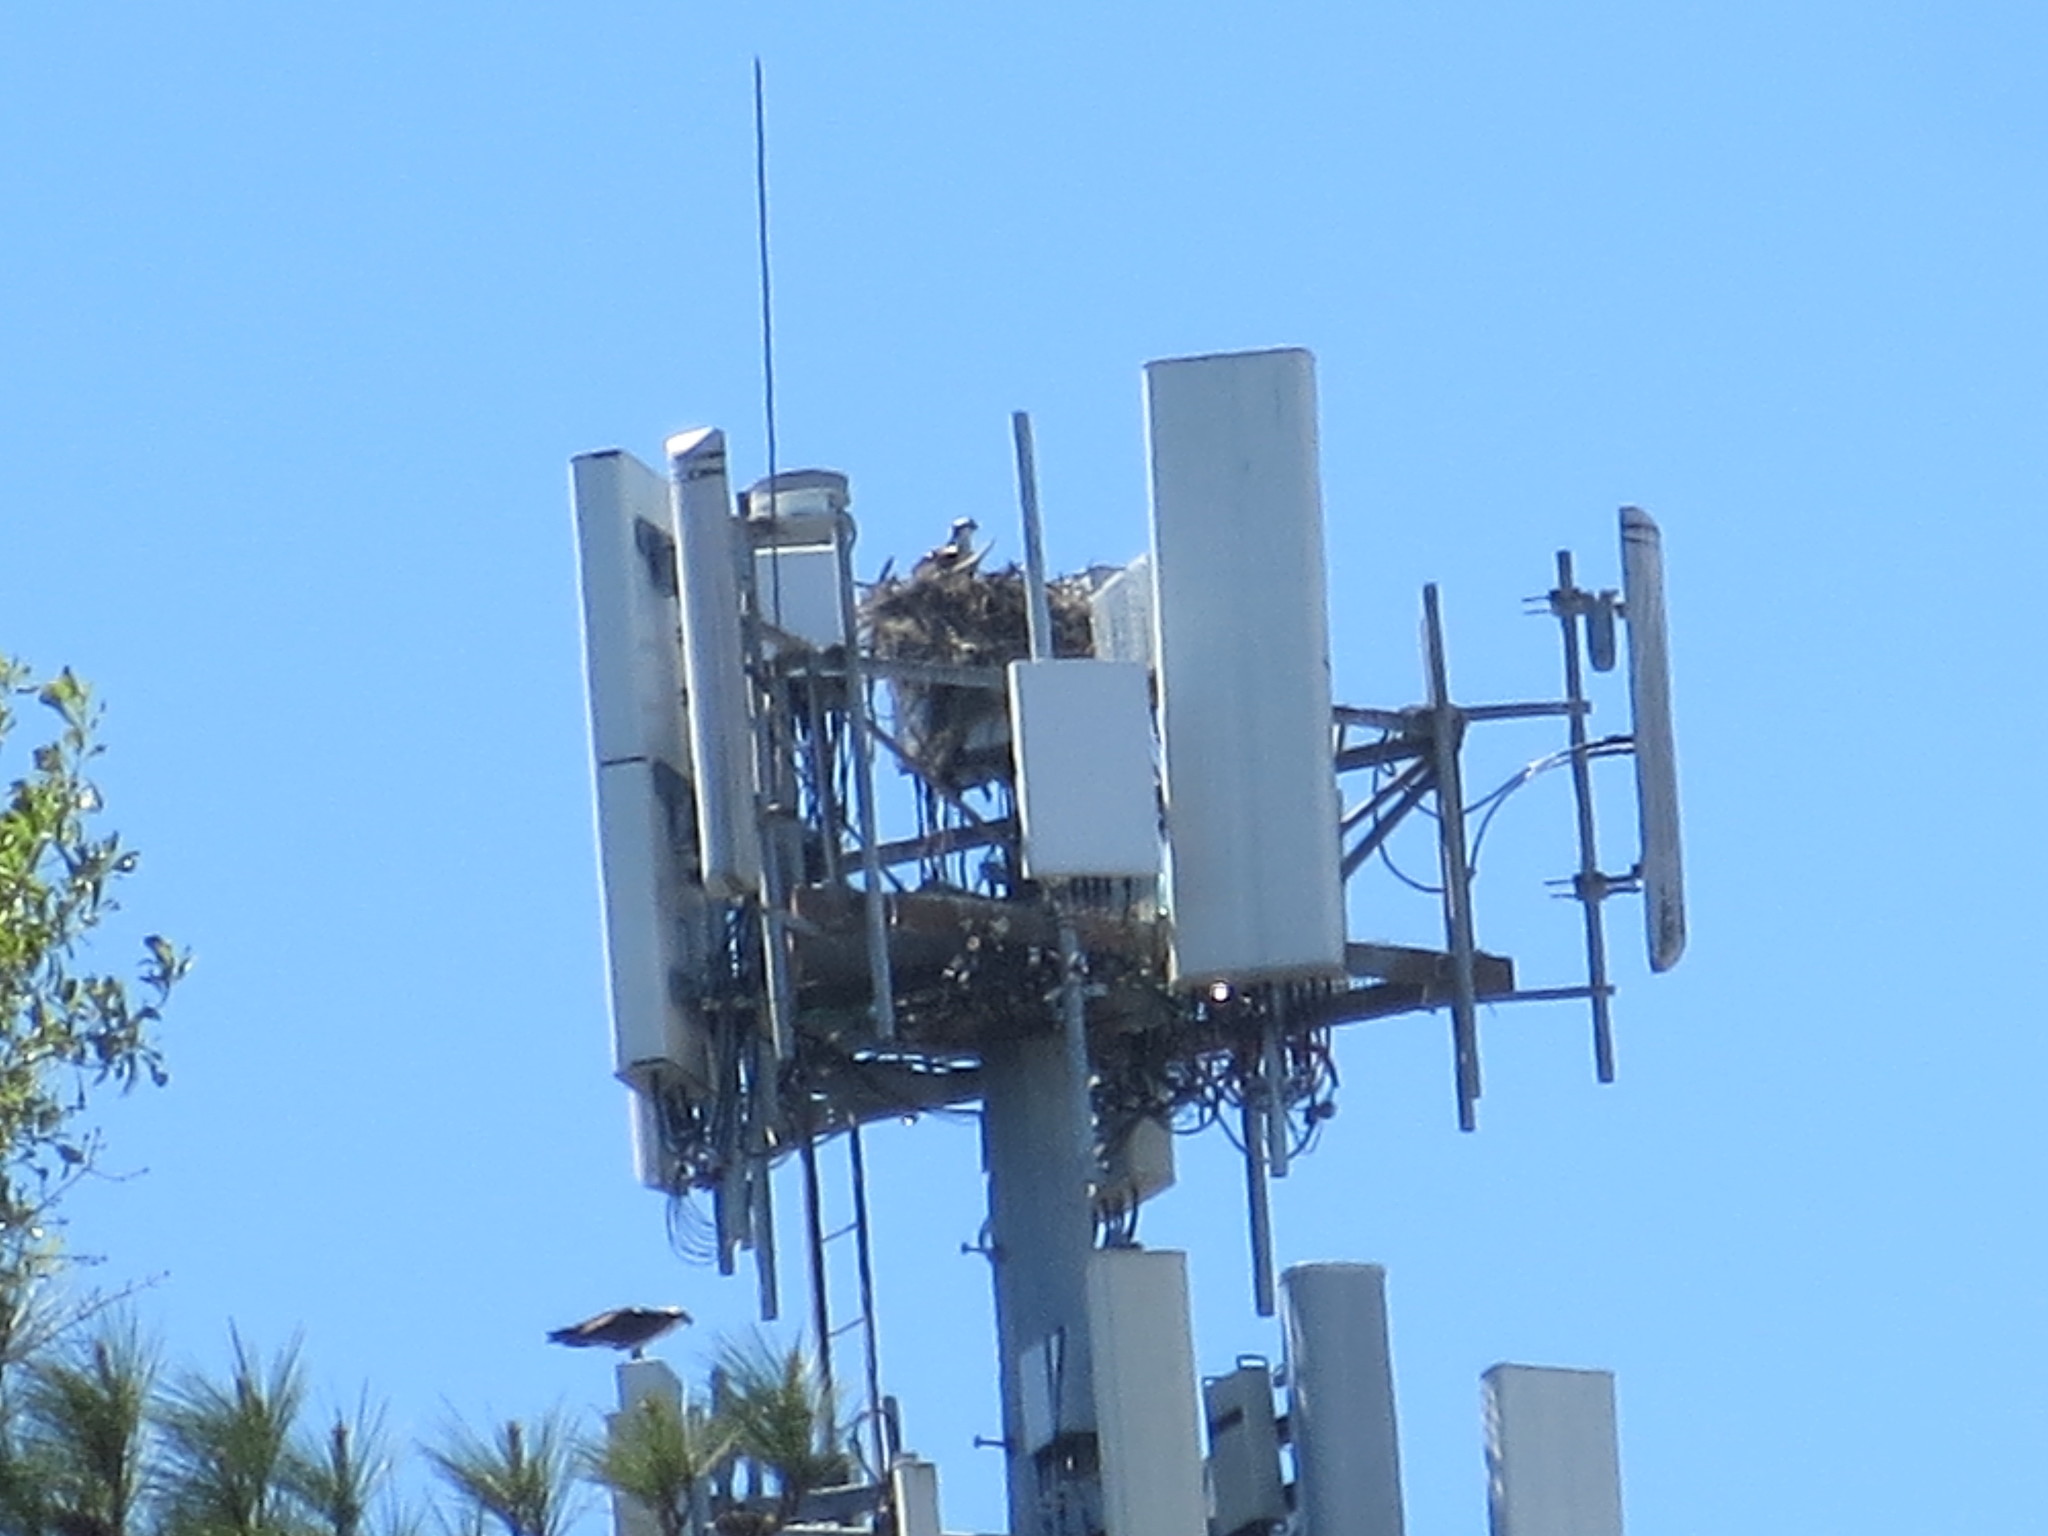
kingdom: Animalia
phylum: Chordata
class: Aves
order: Accipitriformes
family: Pandionidae
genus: Pandion
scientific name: Pandion haliaetus
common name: Osprey
